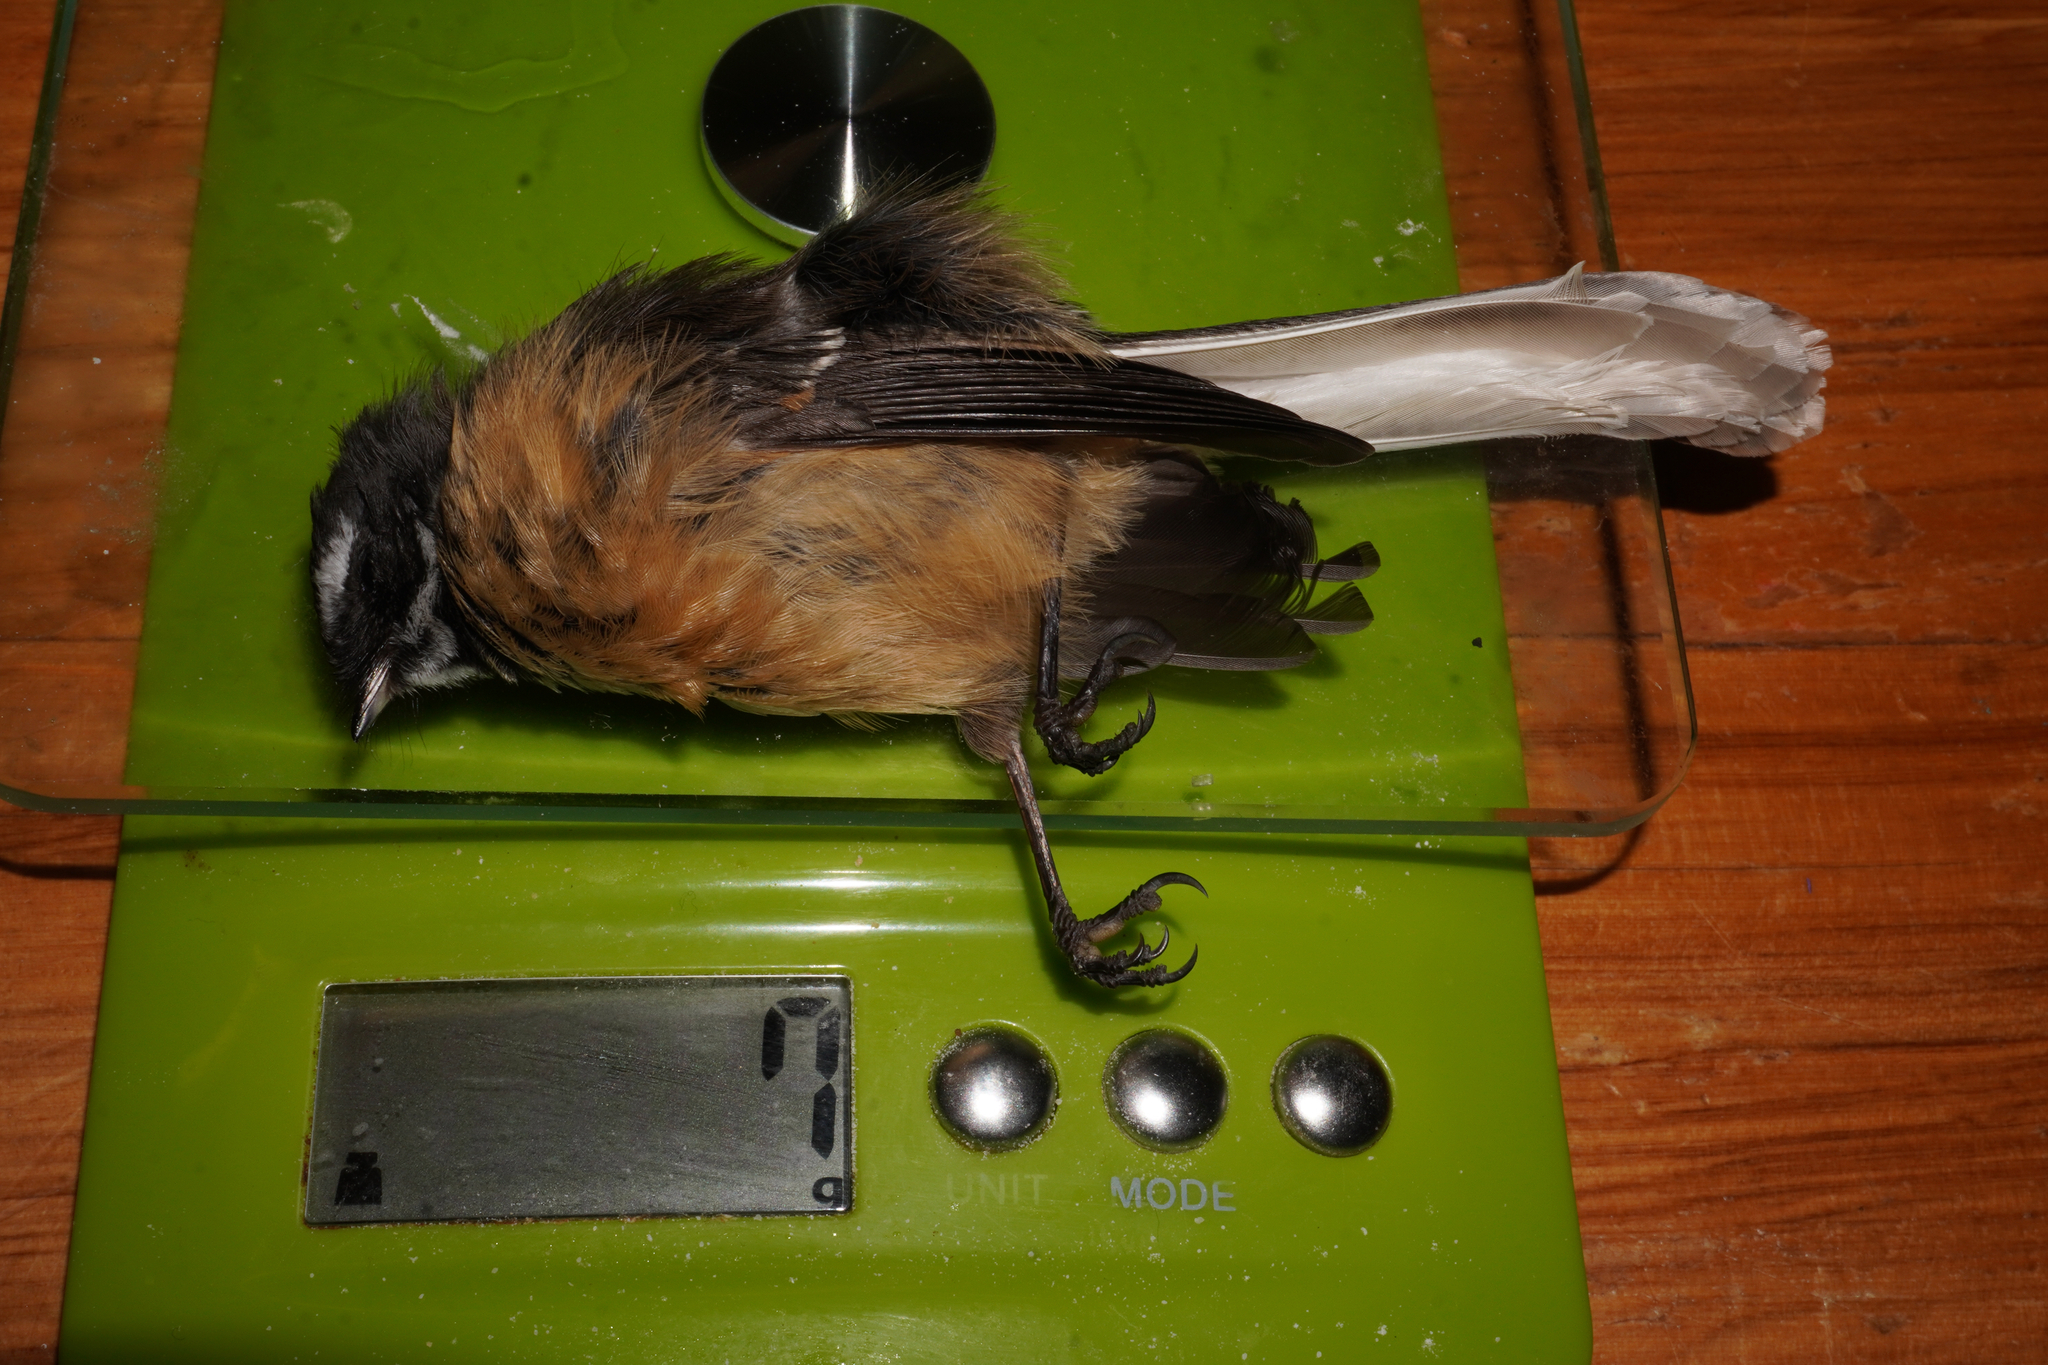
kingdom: Animalia
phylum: Chordata
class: Aves
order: Passeriformes
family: Rhipiduridae
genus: Rhipidura
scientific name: Rhipidura fuliginosa
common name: New zealand fantail
